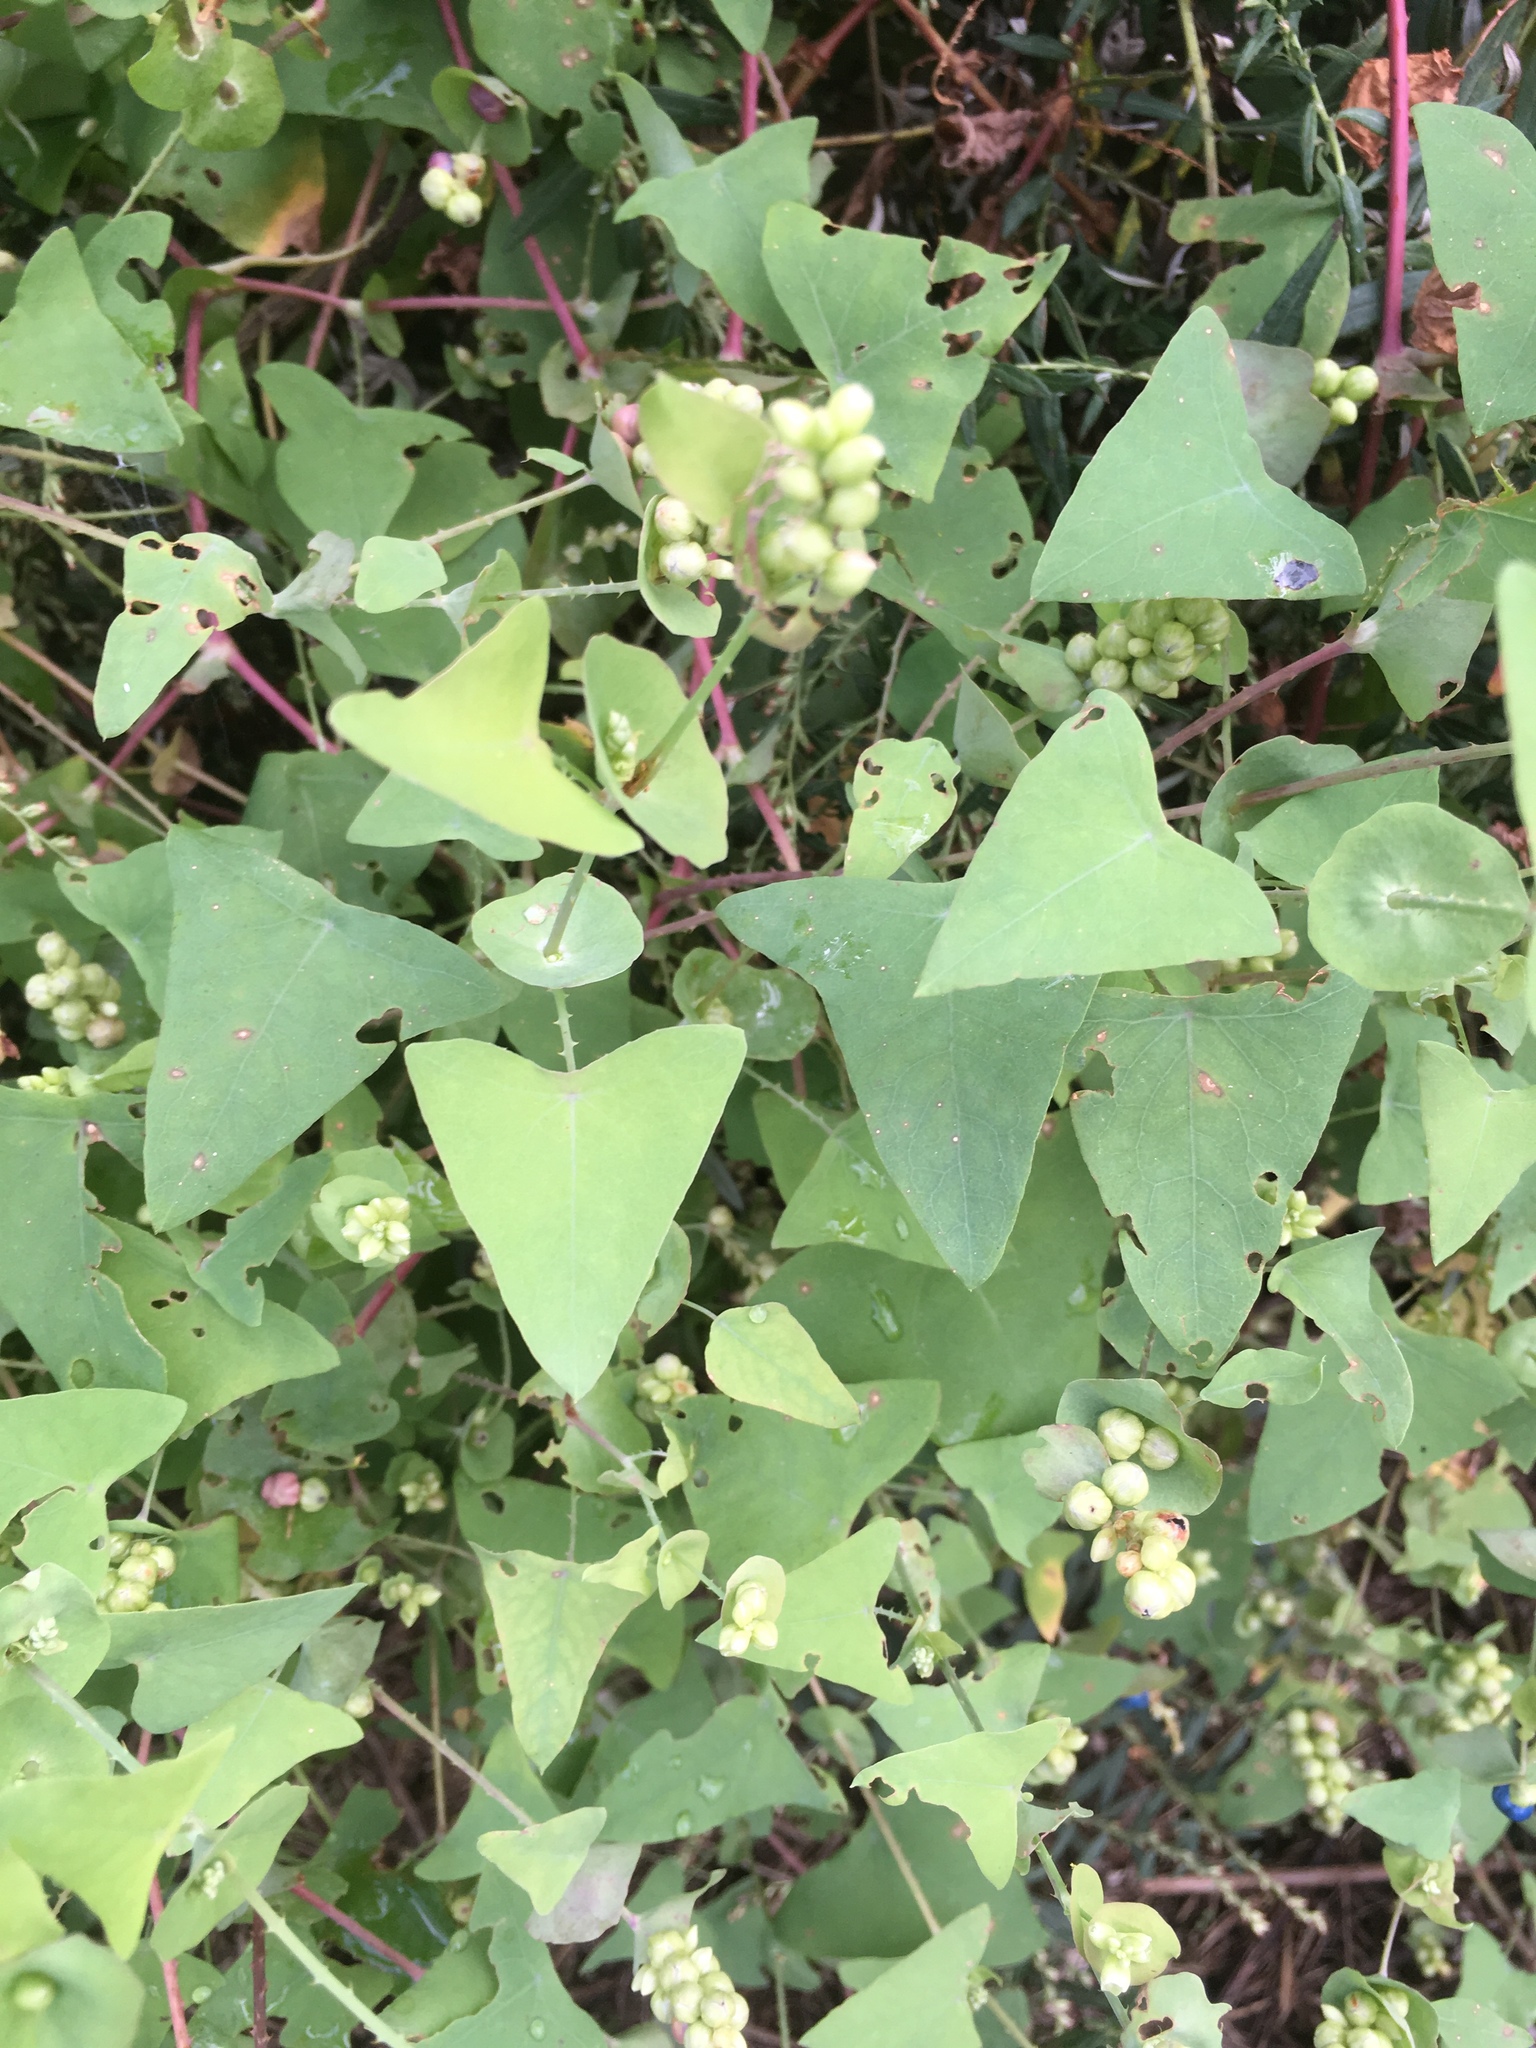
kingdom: Plantae
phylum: Tracheophyta
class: Magnoliopsida
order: Caryophyllales
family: Polygonaceae
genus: Persicaria
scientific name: Persicaria perfoliata
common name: Asiatic tearthumb
